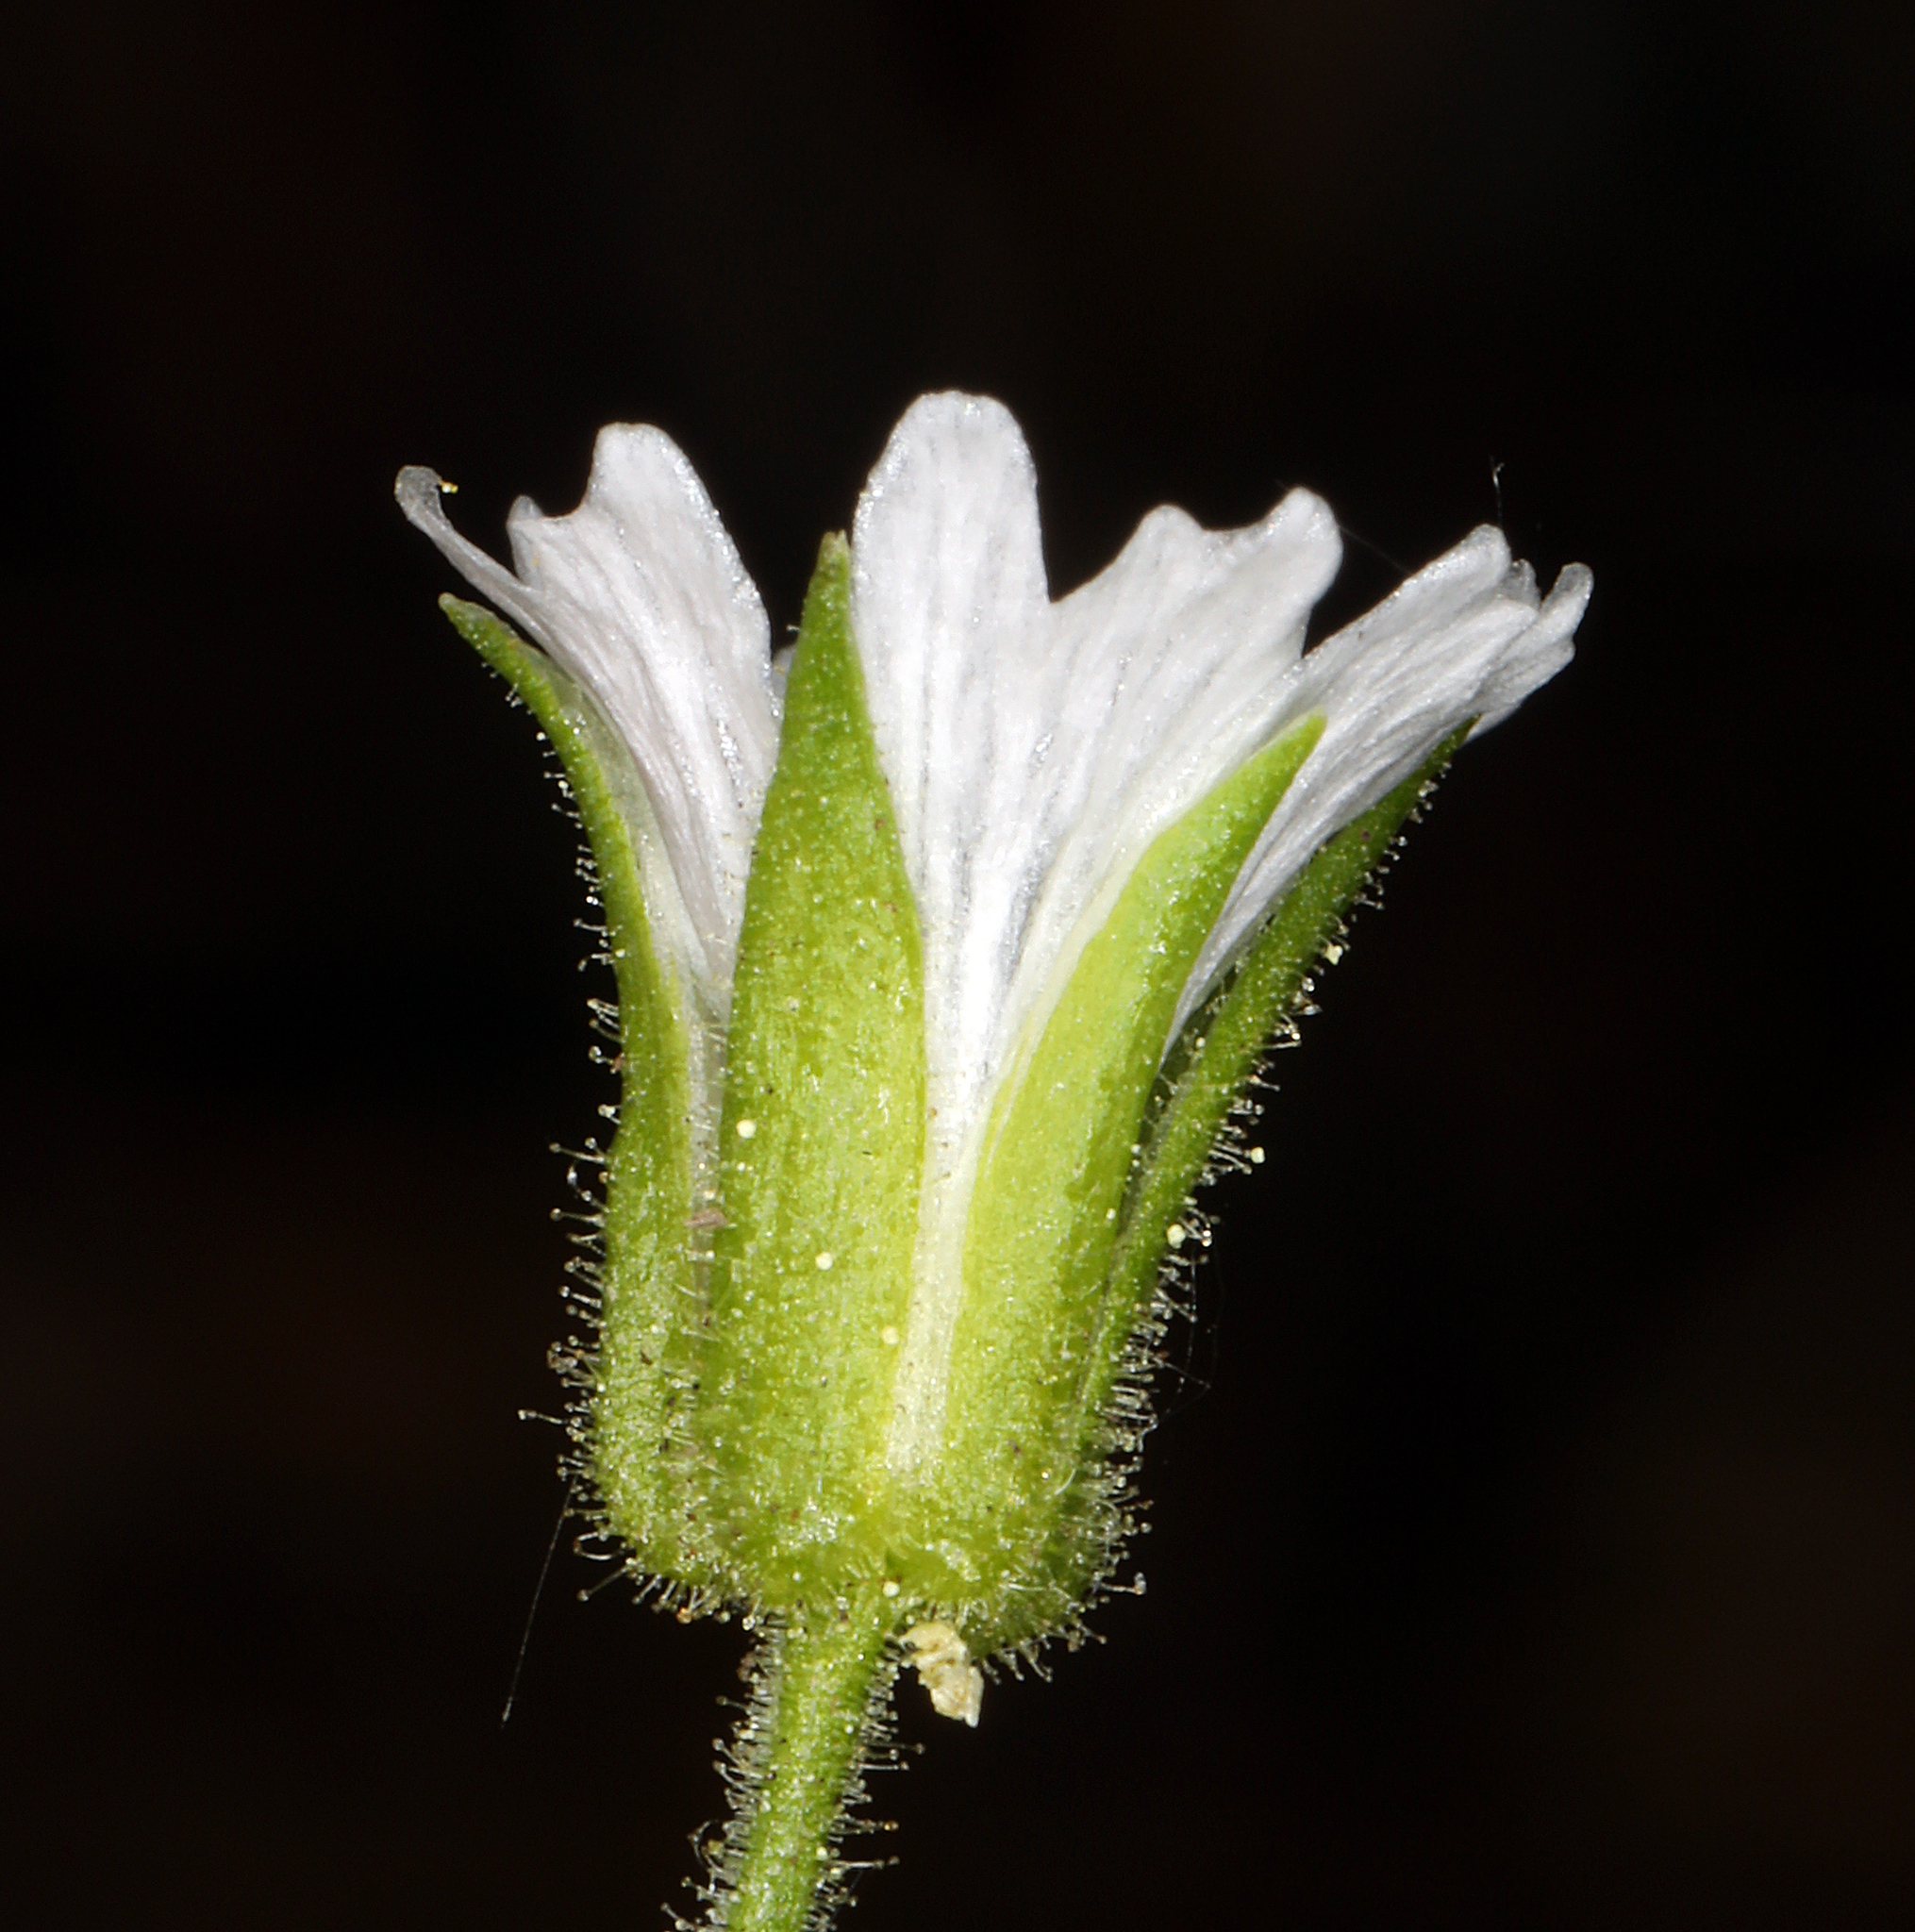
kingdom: Plantae
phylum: Tracheophyta
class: Magnoliopsida
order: Caryophyllales
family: Caryophyllaceae
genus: Schizotechium
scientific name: Schizotechium jamesianum
